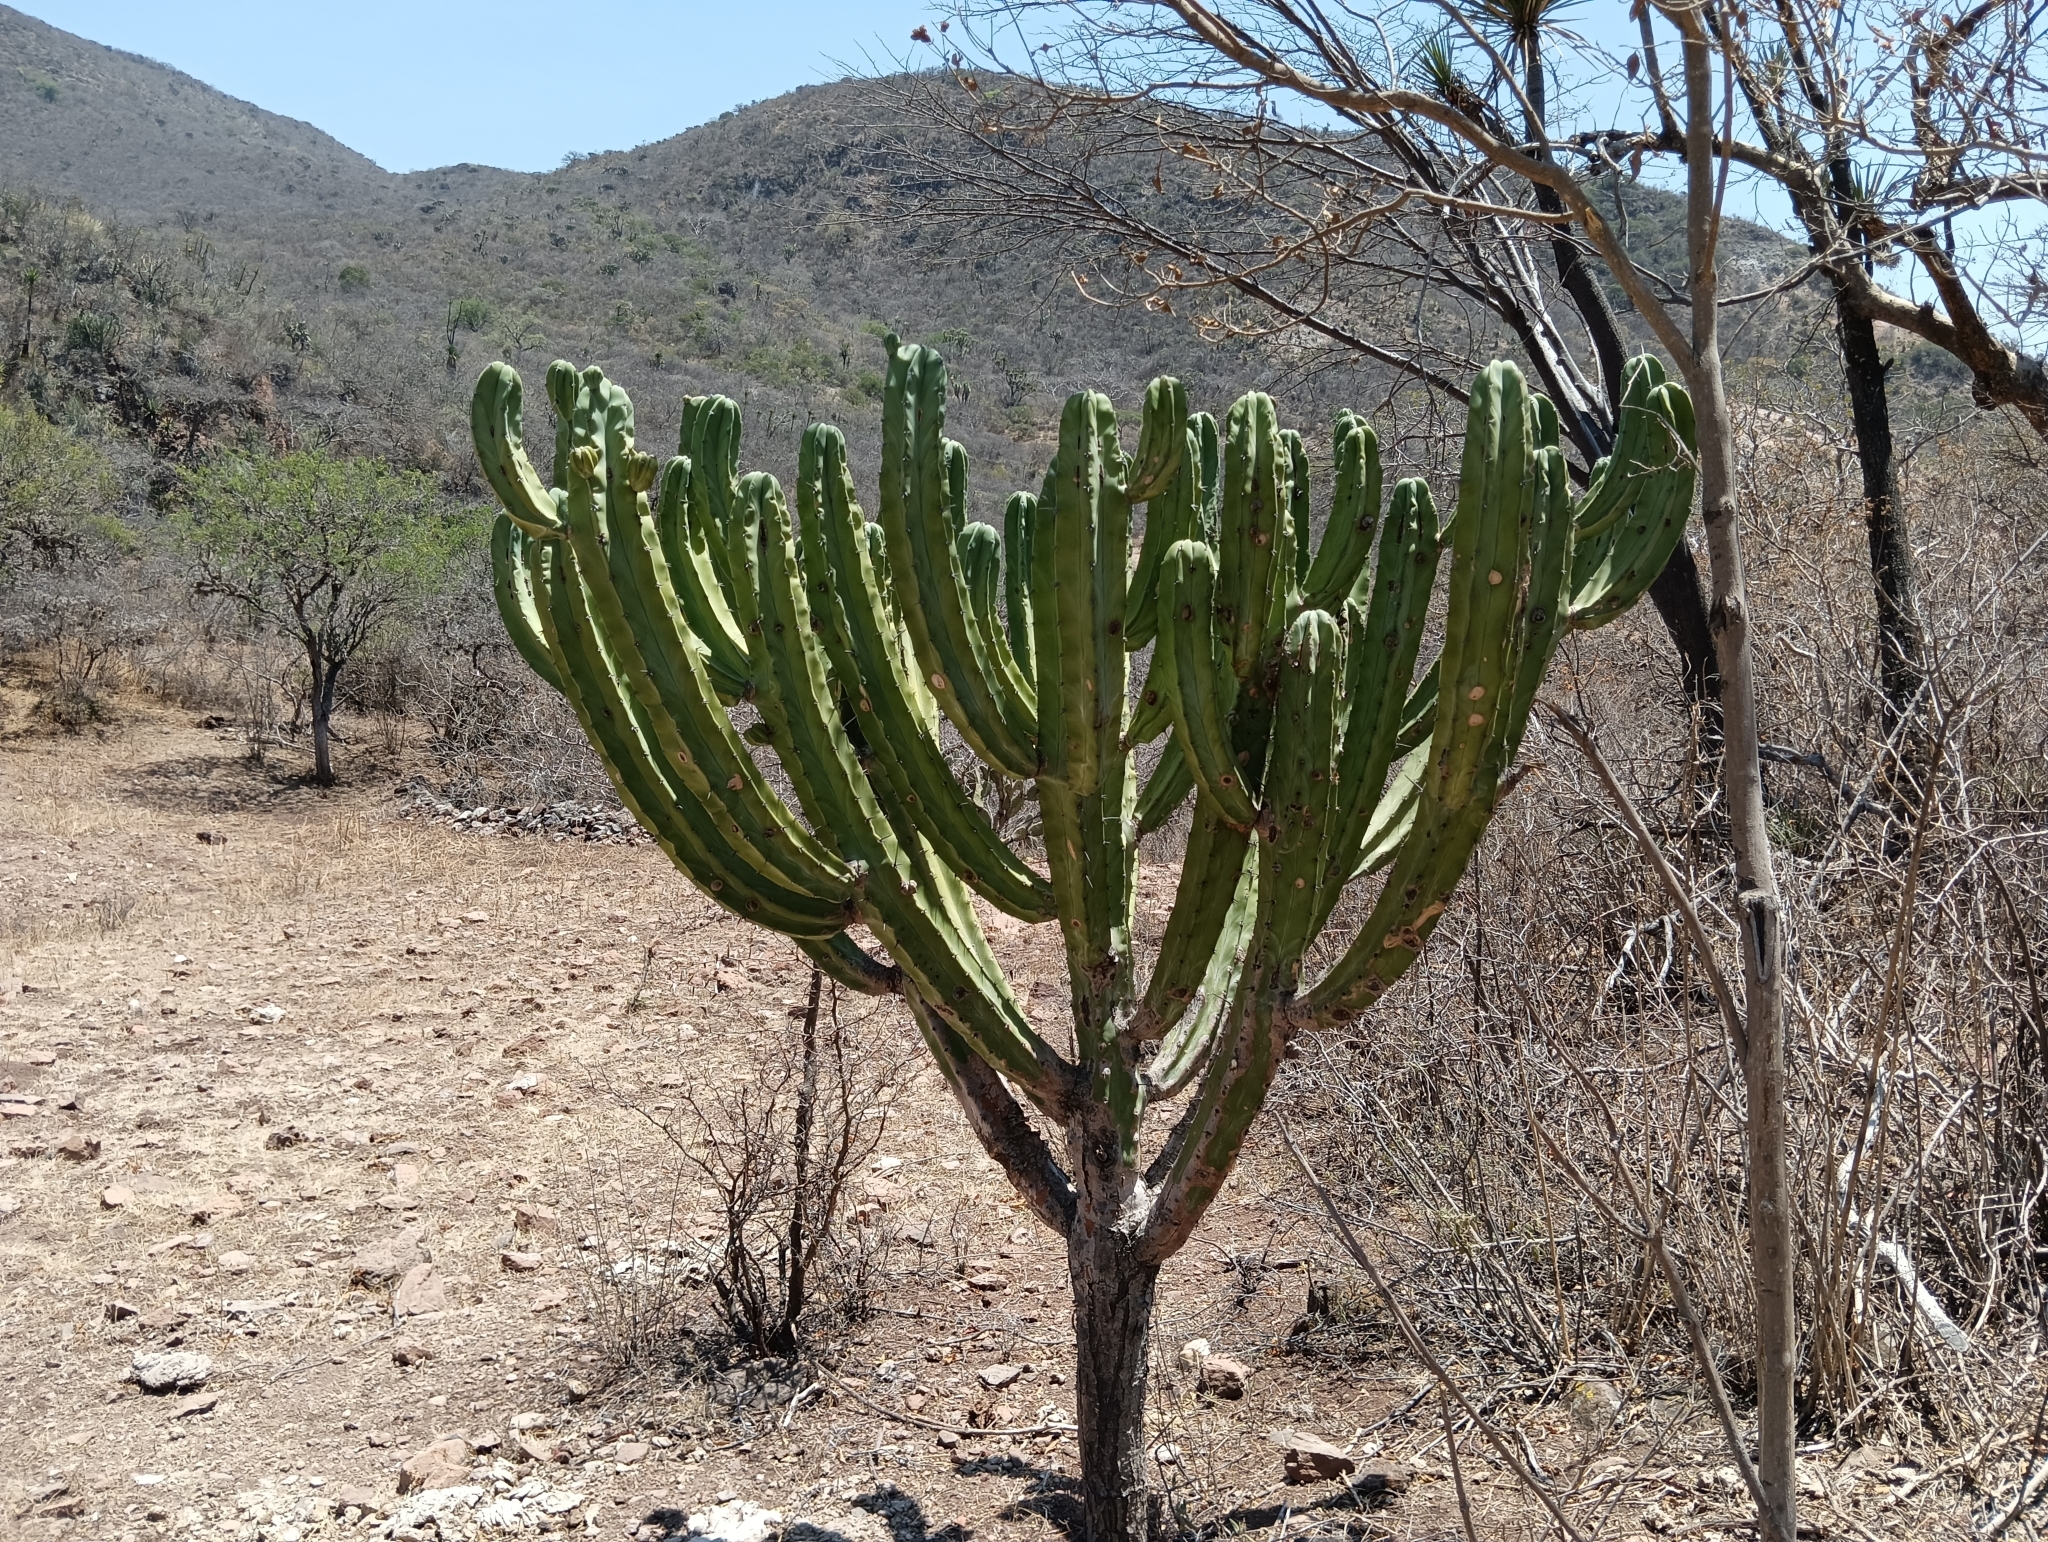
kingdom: Plantae
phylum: Tracheophyta
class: Magnoliopsida
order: Caryophyllales
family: Cactaceae
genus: Myrtillocactus
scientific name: Myrtillocactus geometrizans
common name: Bilberry cactus
